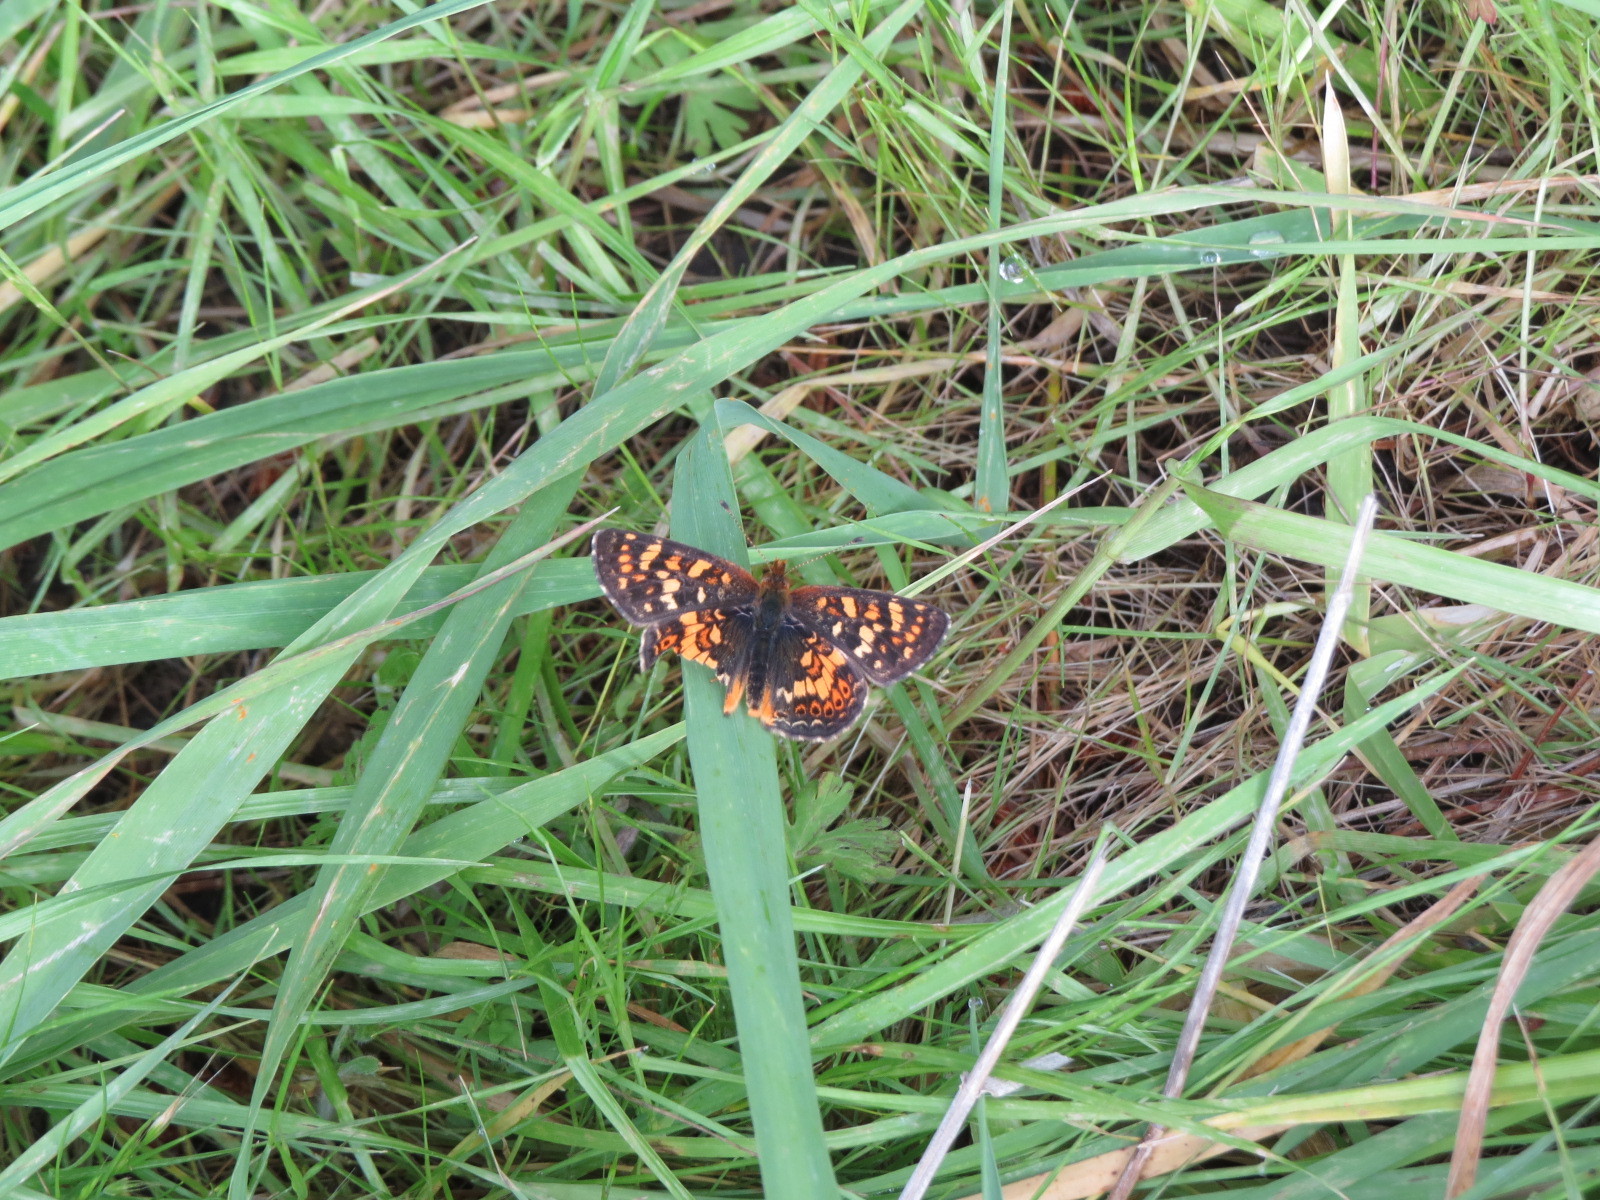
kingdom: Animalia
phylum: Arthropoda
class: Insecta
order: Lepidoptera
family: Nymphalidae
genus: Phyciodes
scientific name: Phyciodes tharos
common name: Pearl crescent
